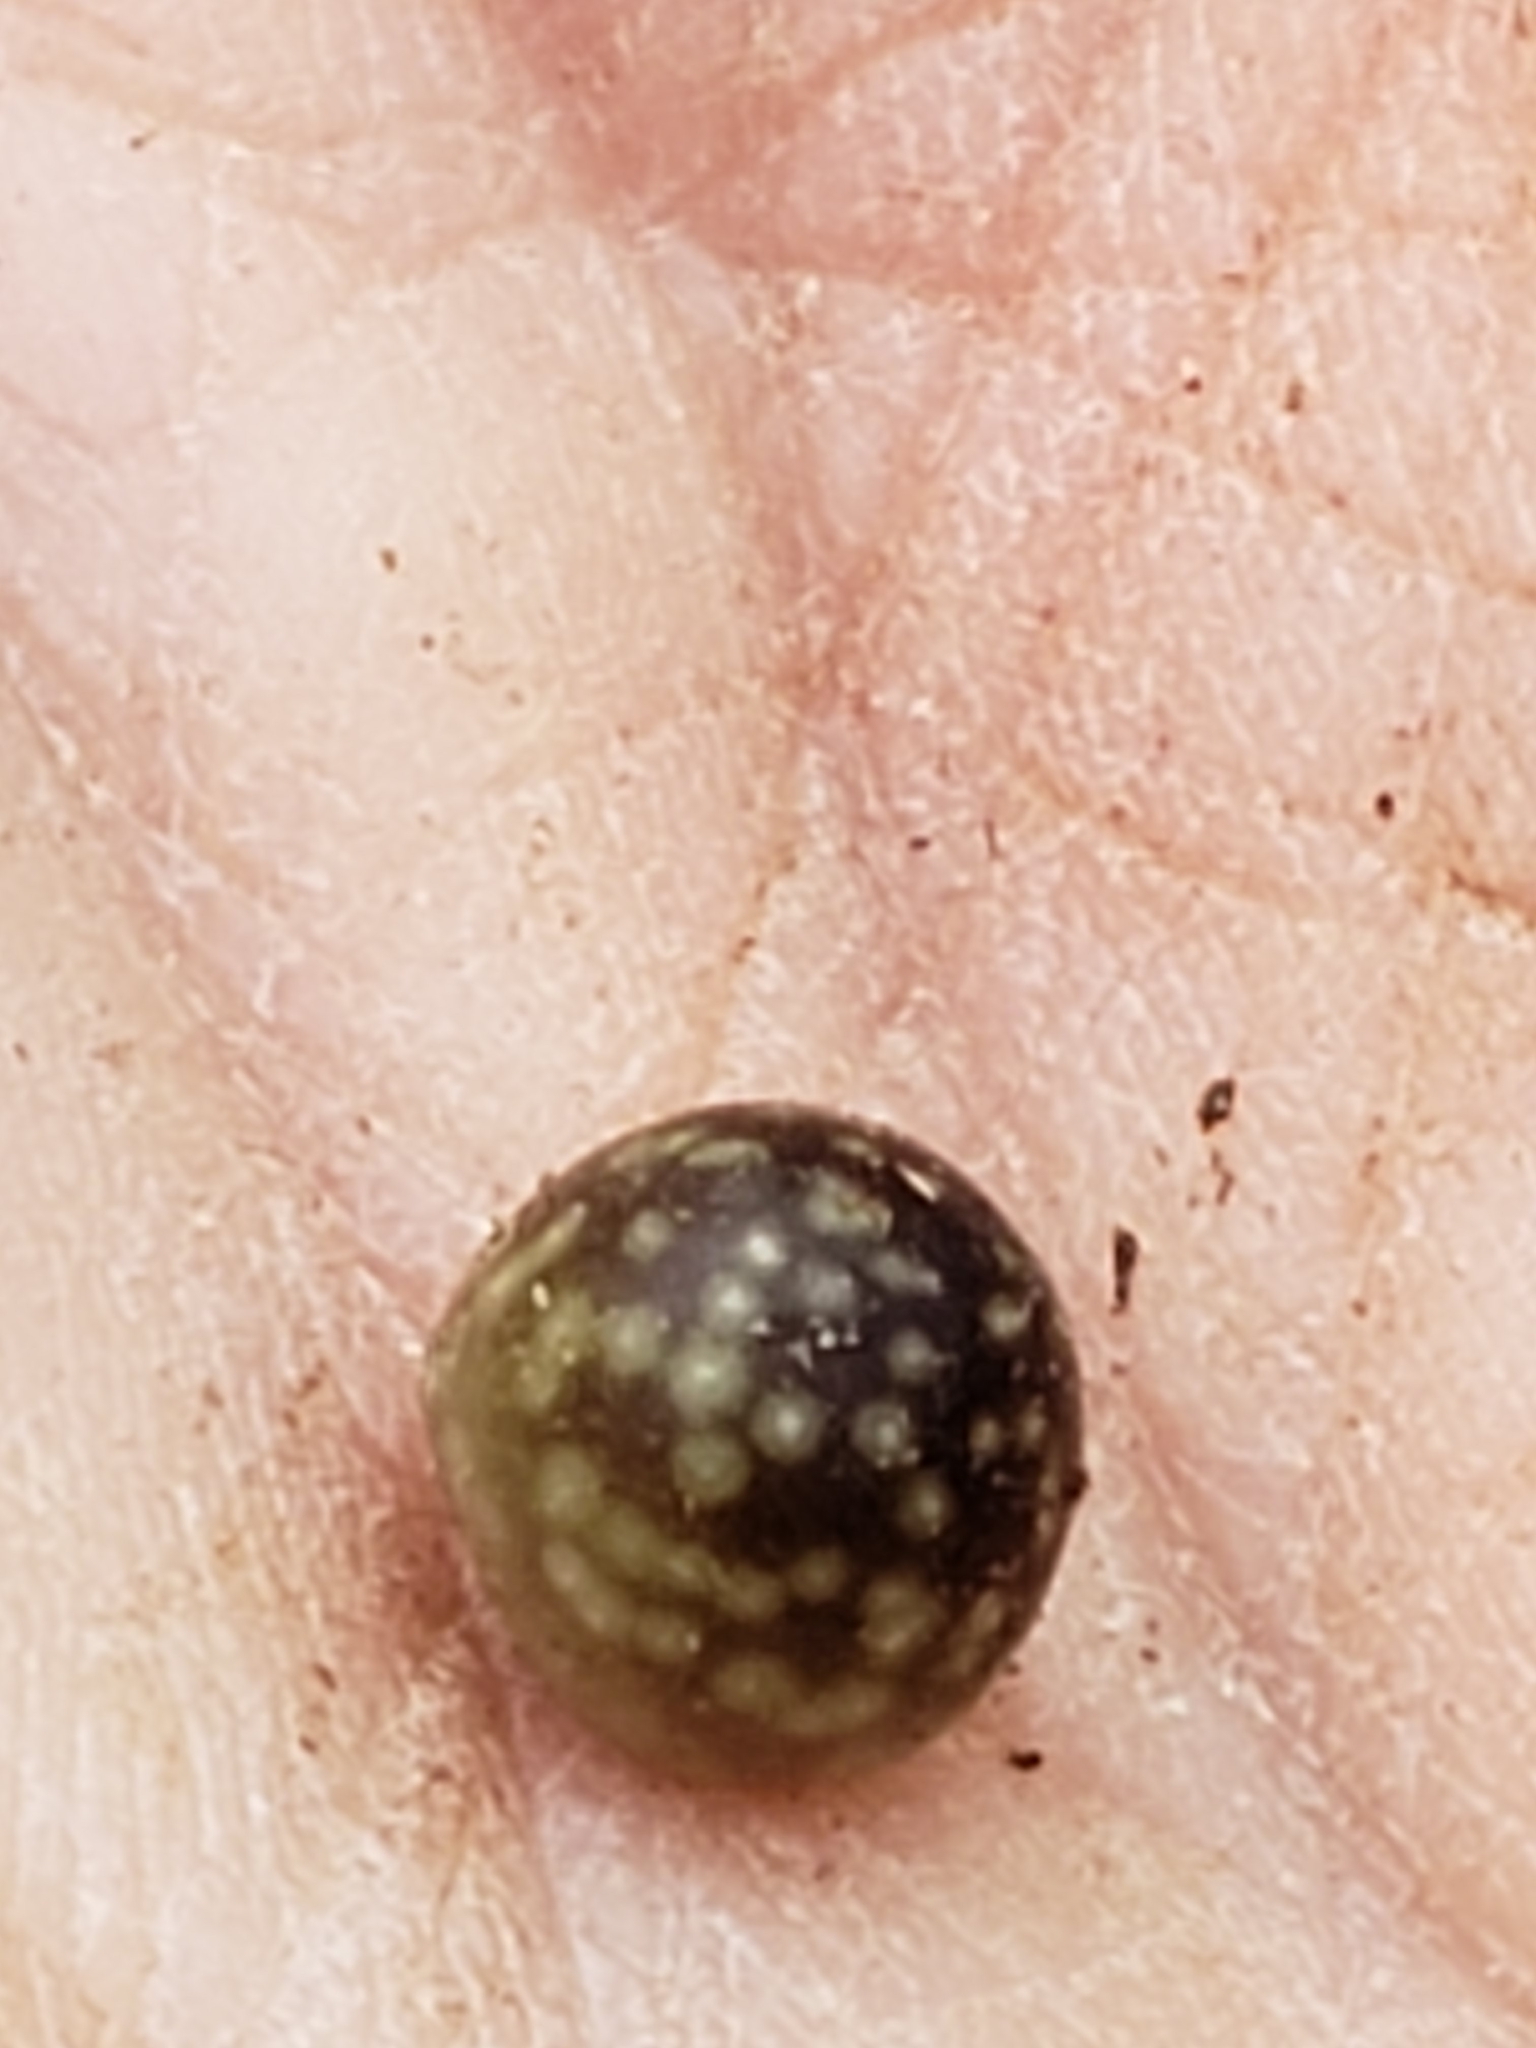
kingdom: Animalia
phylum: Arthropoda
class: Insecta
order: Hymenoptera
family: Cynipidae
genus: Amphibolips
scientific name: Amphibolips
